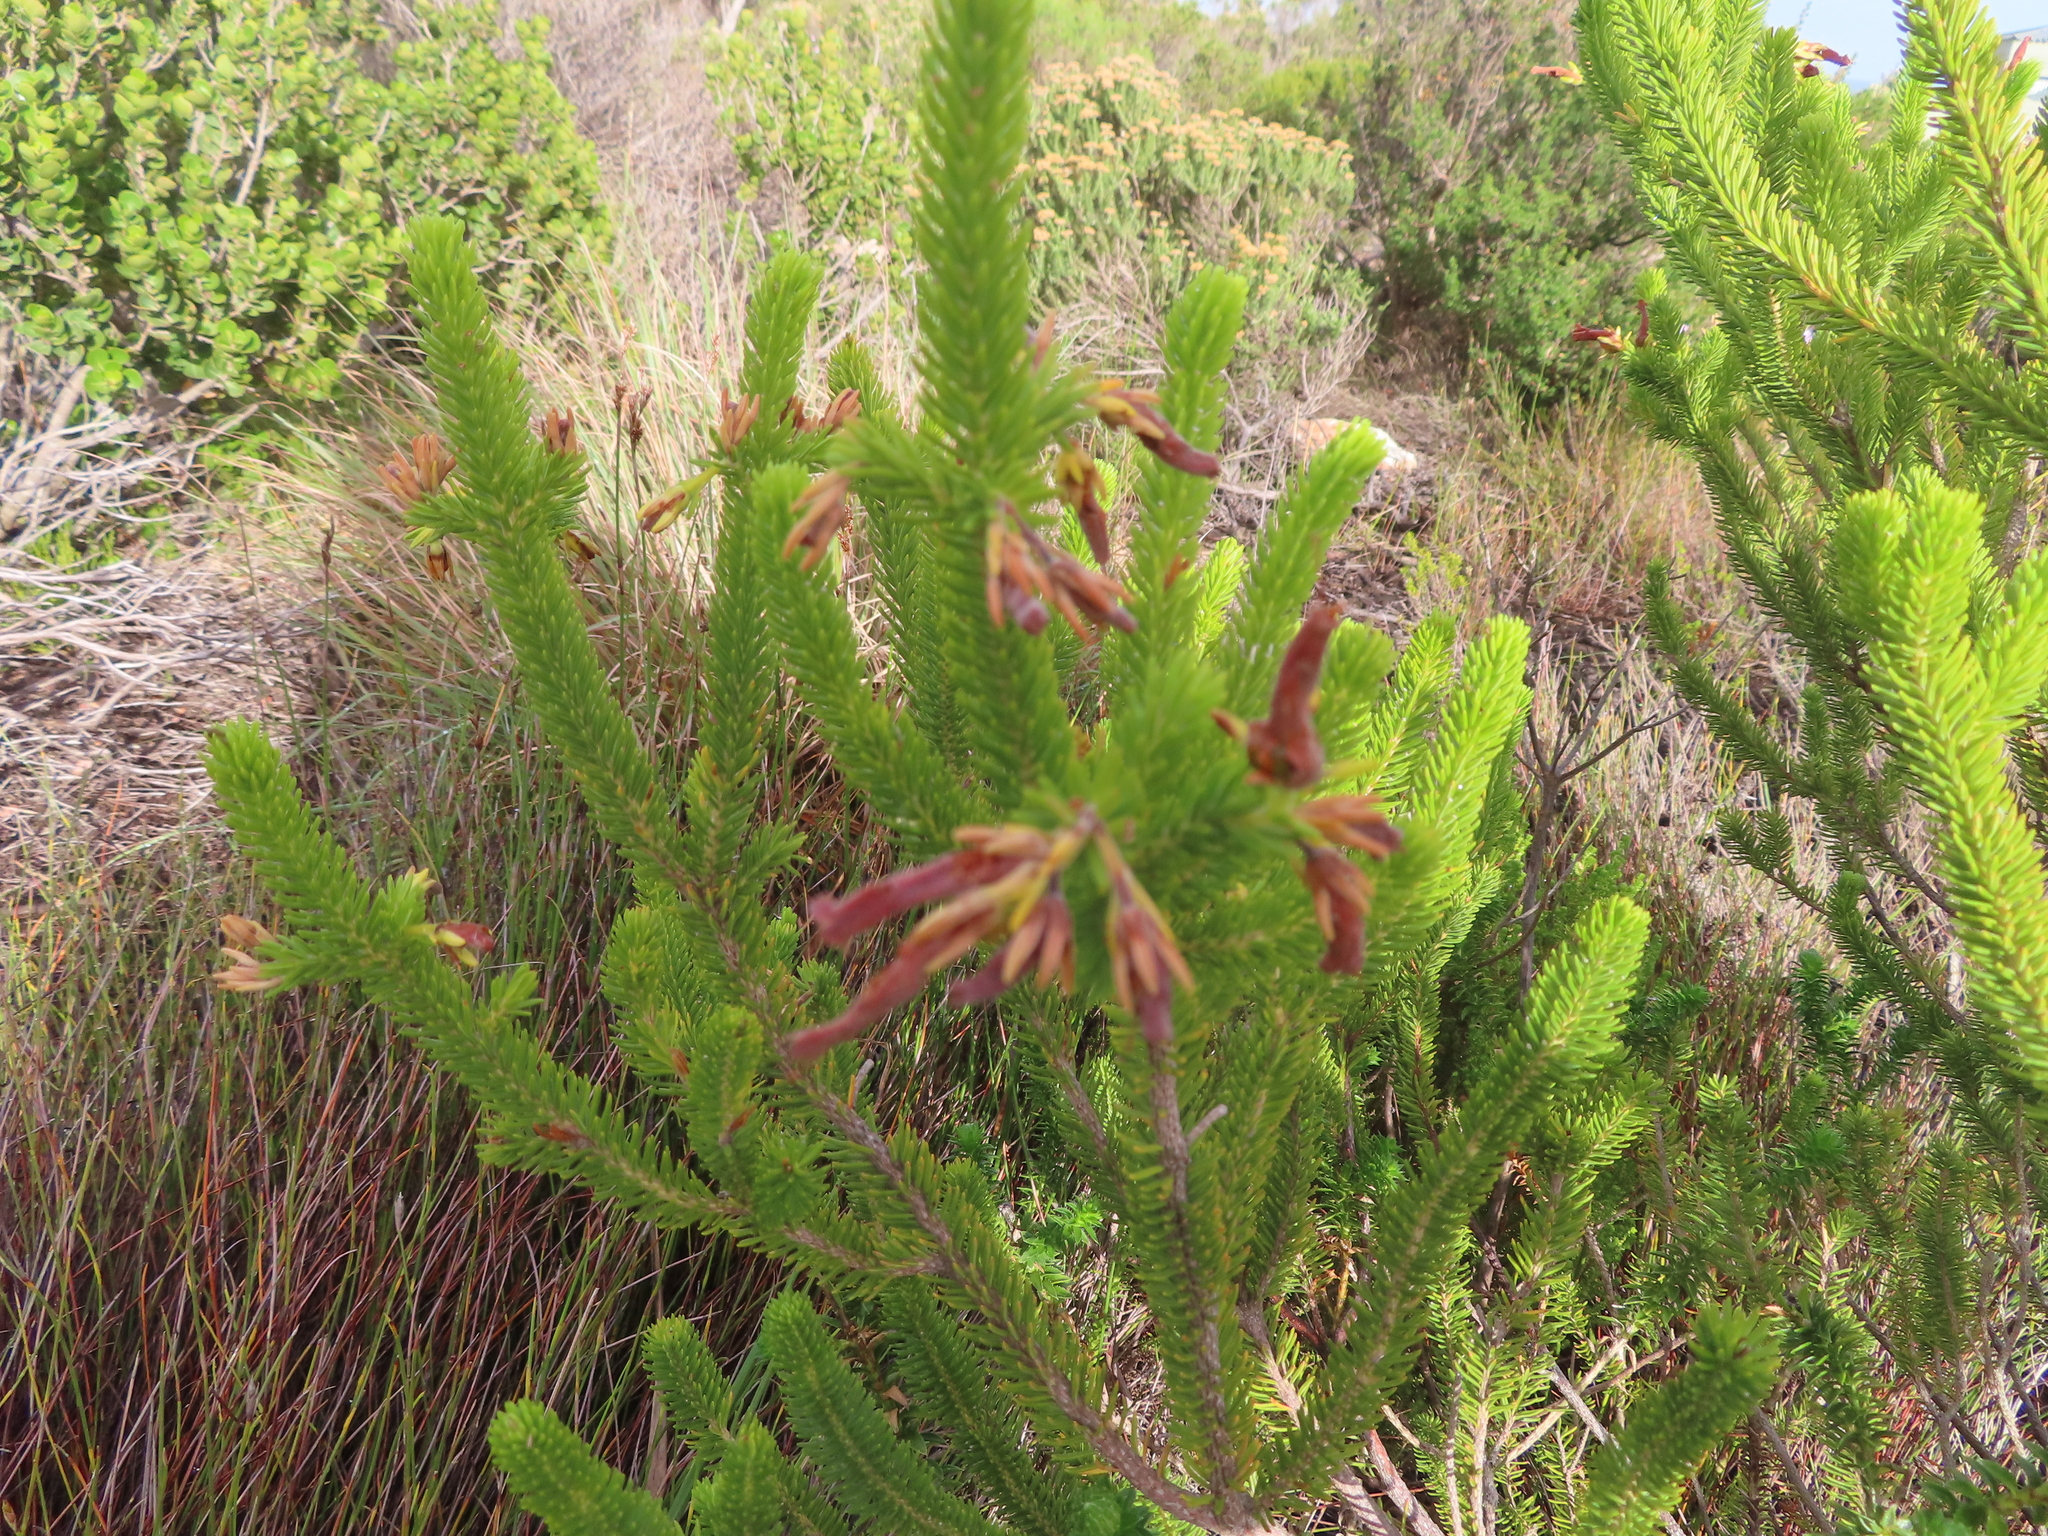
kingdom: Plantae
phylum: Tracheophyta
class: Magnoliopsida
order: Ericales
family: Ericaceae
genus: Erica
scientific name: Erica brachialis
